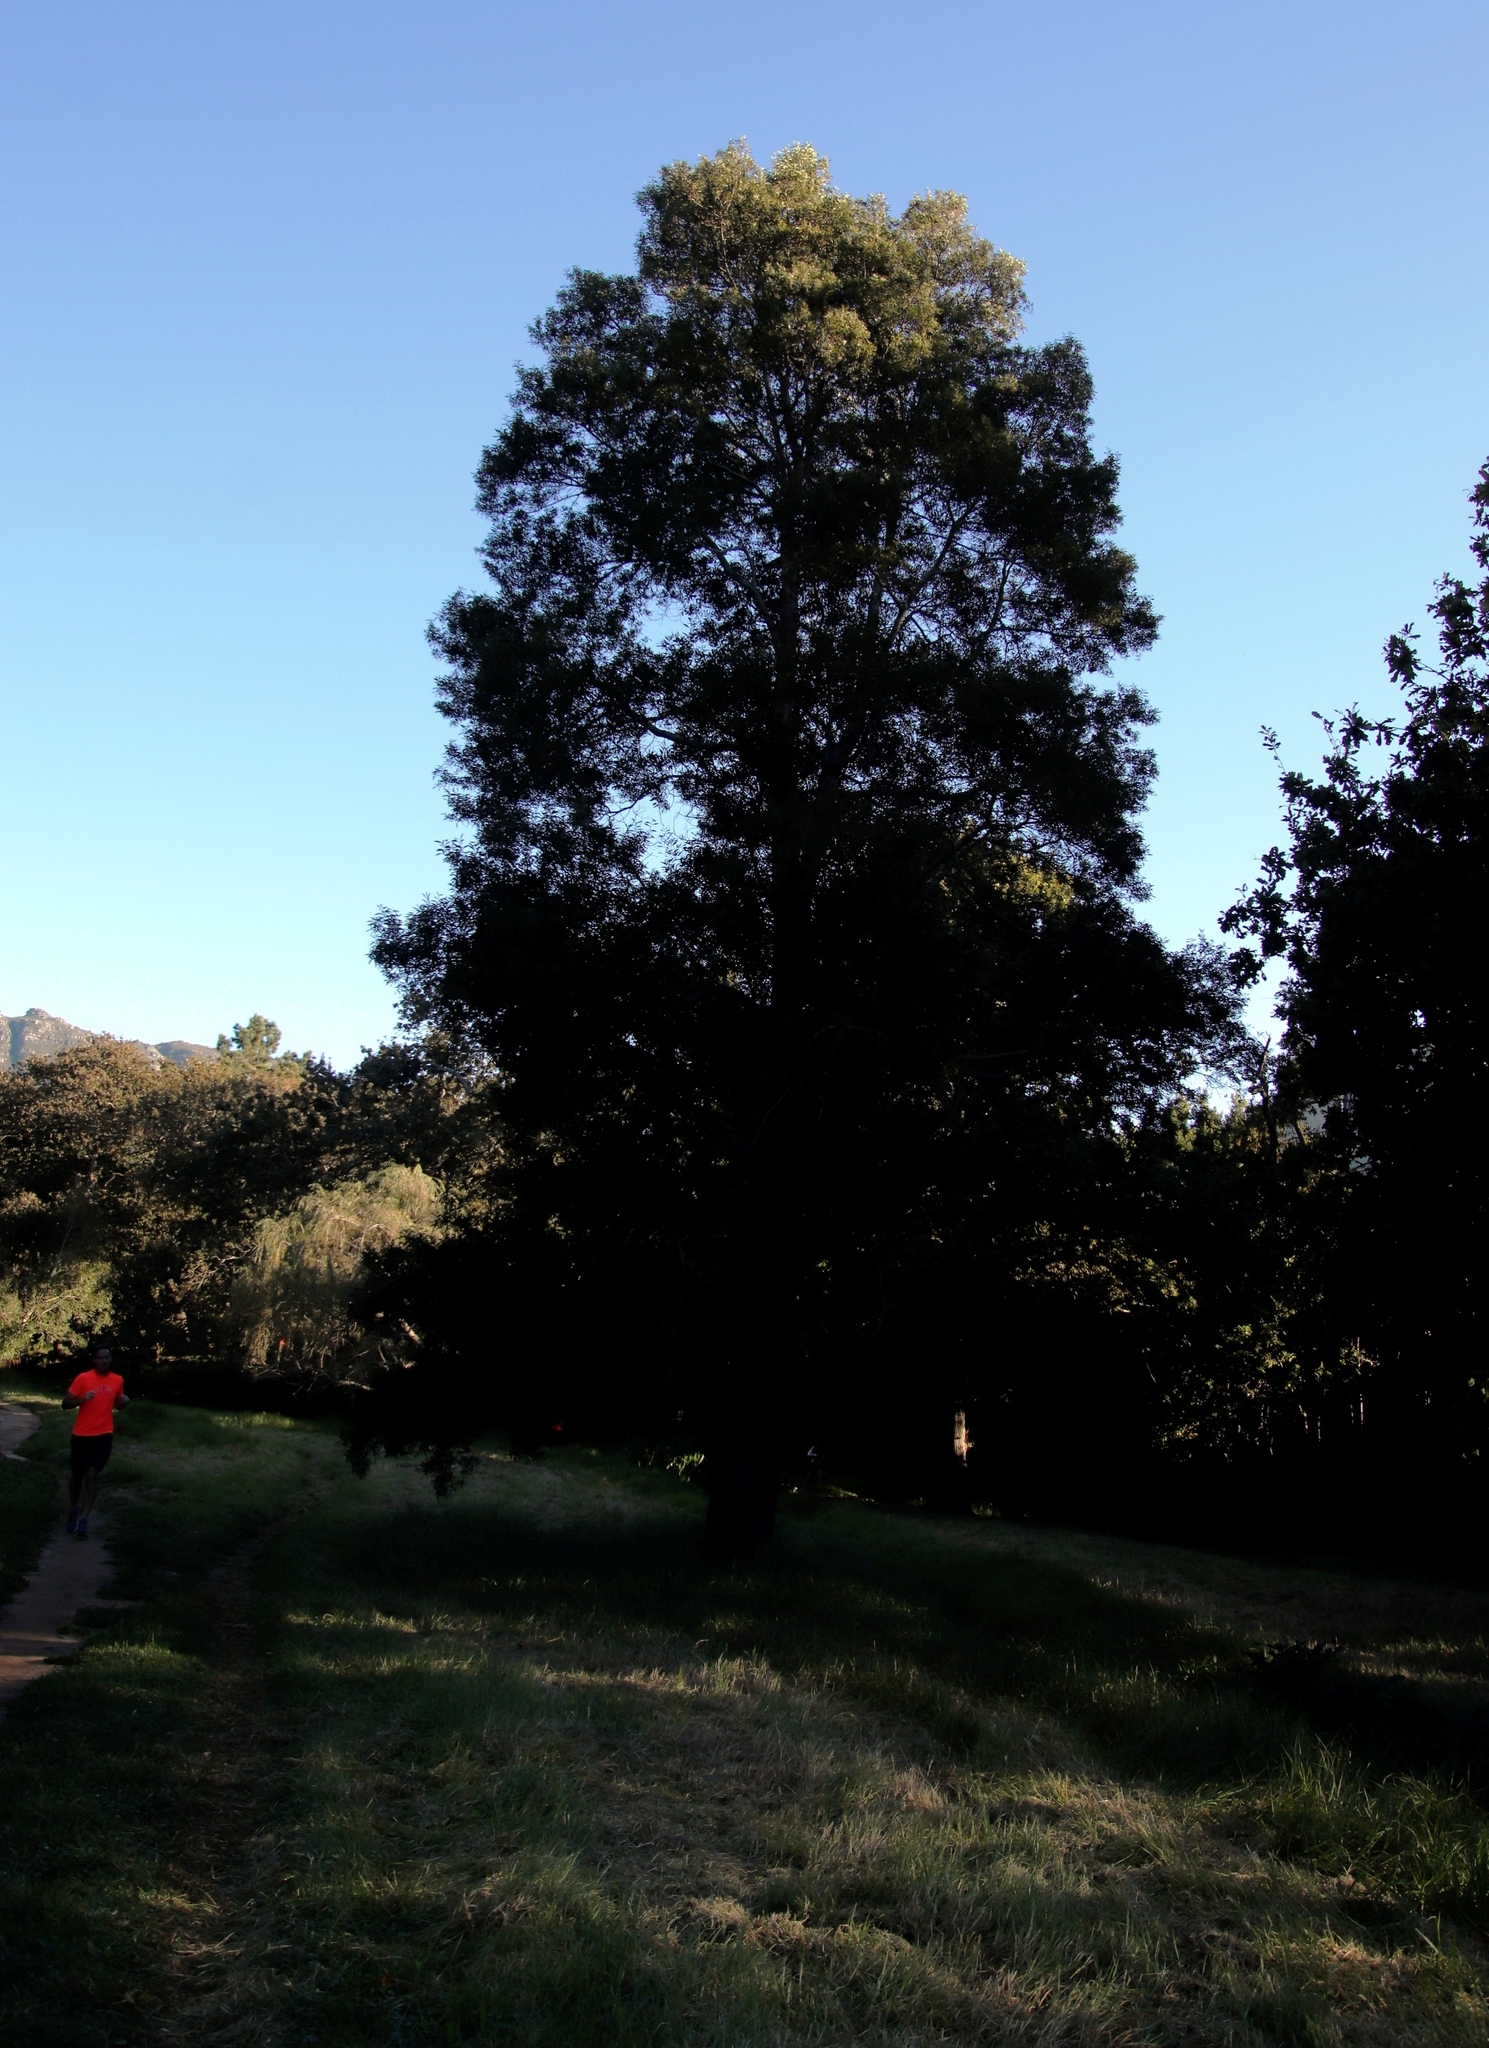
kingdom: Plantae
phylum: Tracheophyta
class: Magnoliopsida
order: Fabales
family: Fabaceae
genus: Acacia
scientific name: Acacia melanoxylon
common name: Blackwood
